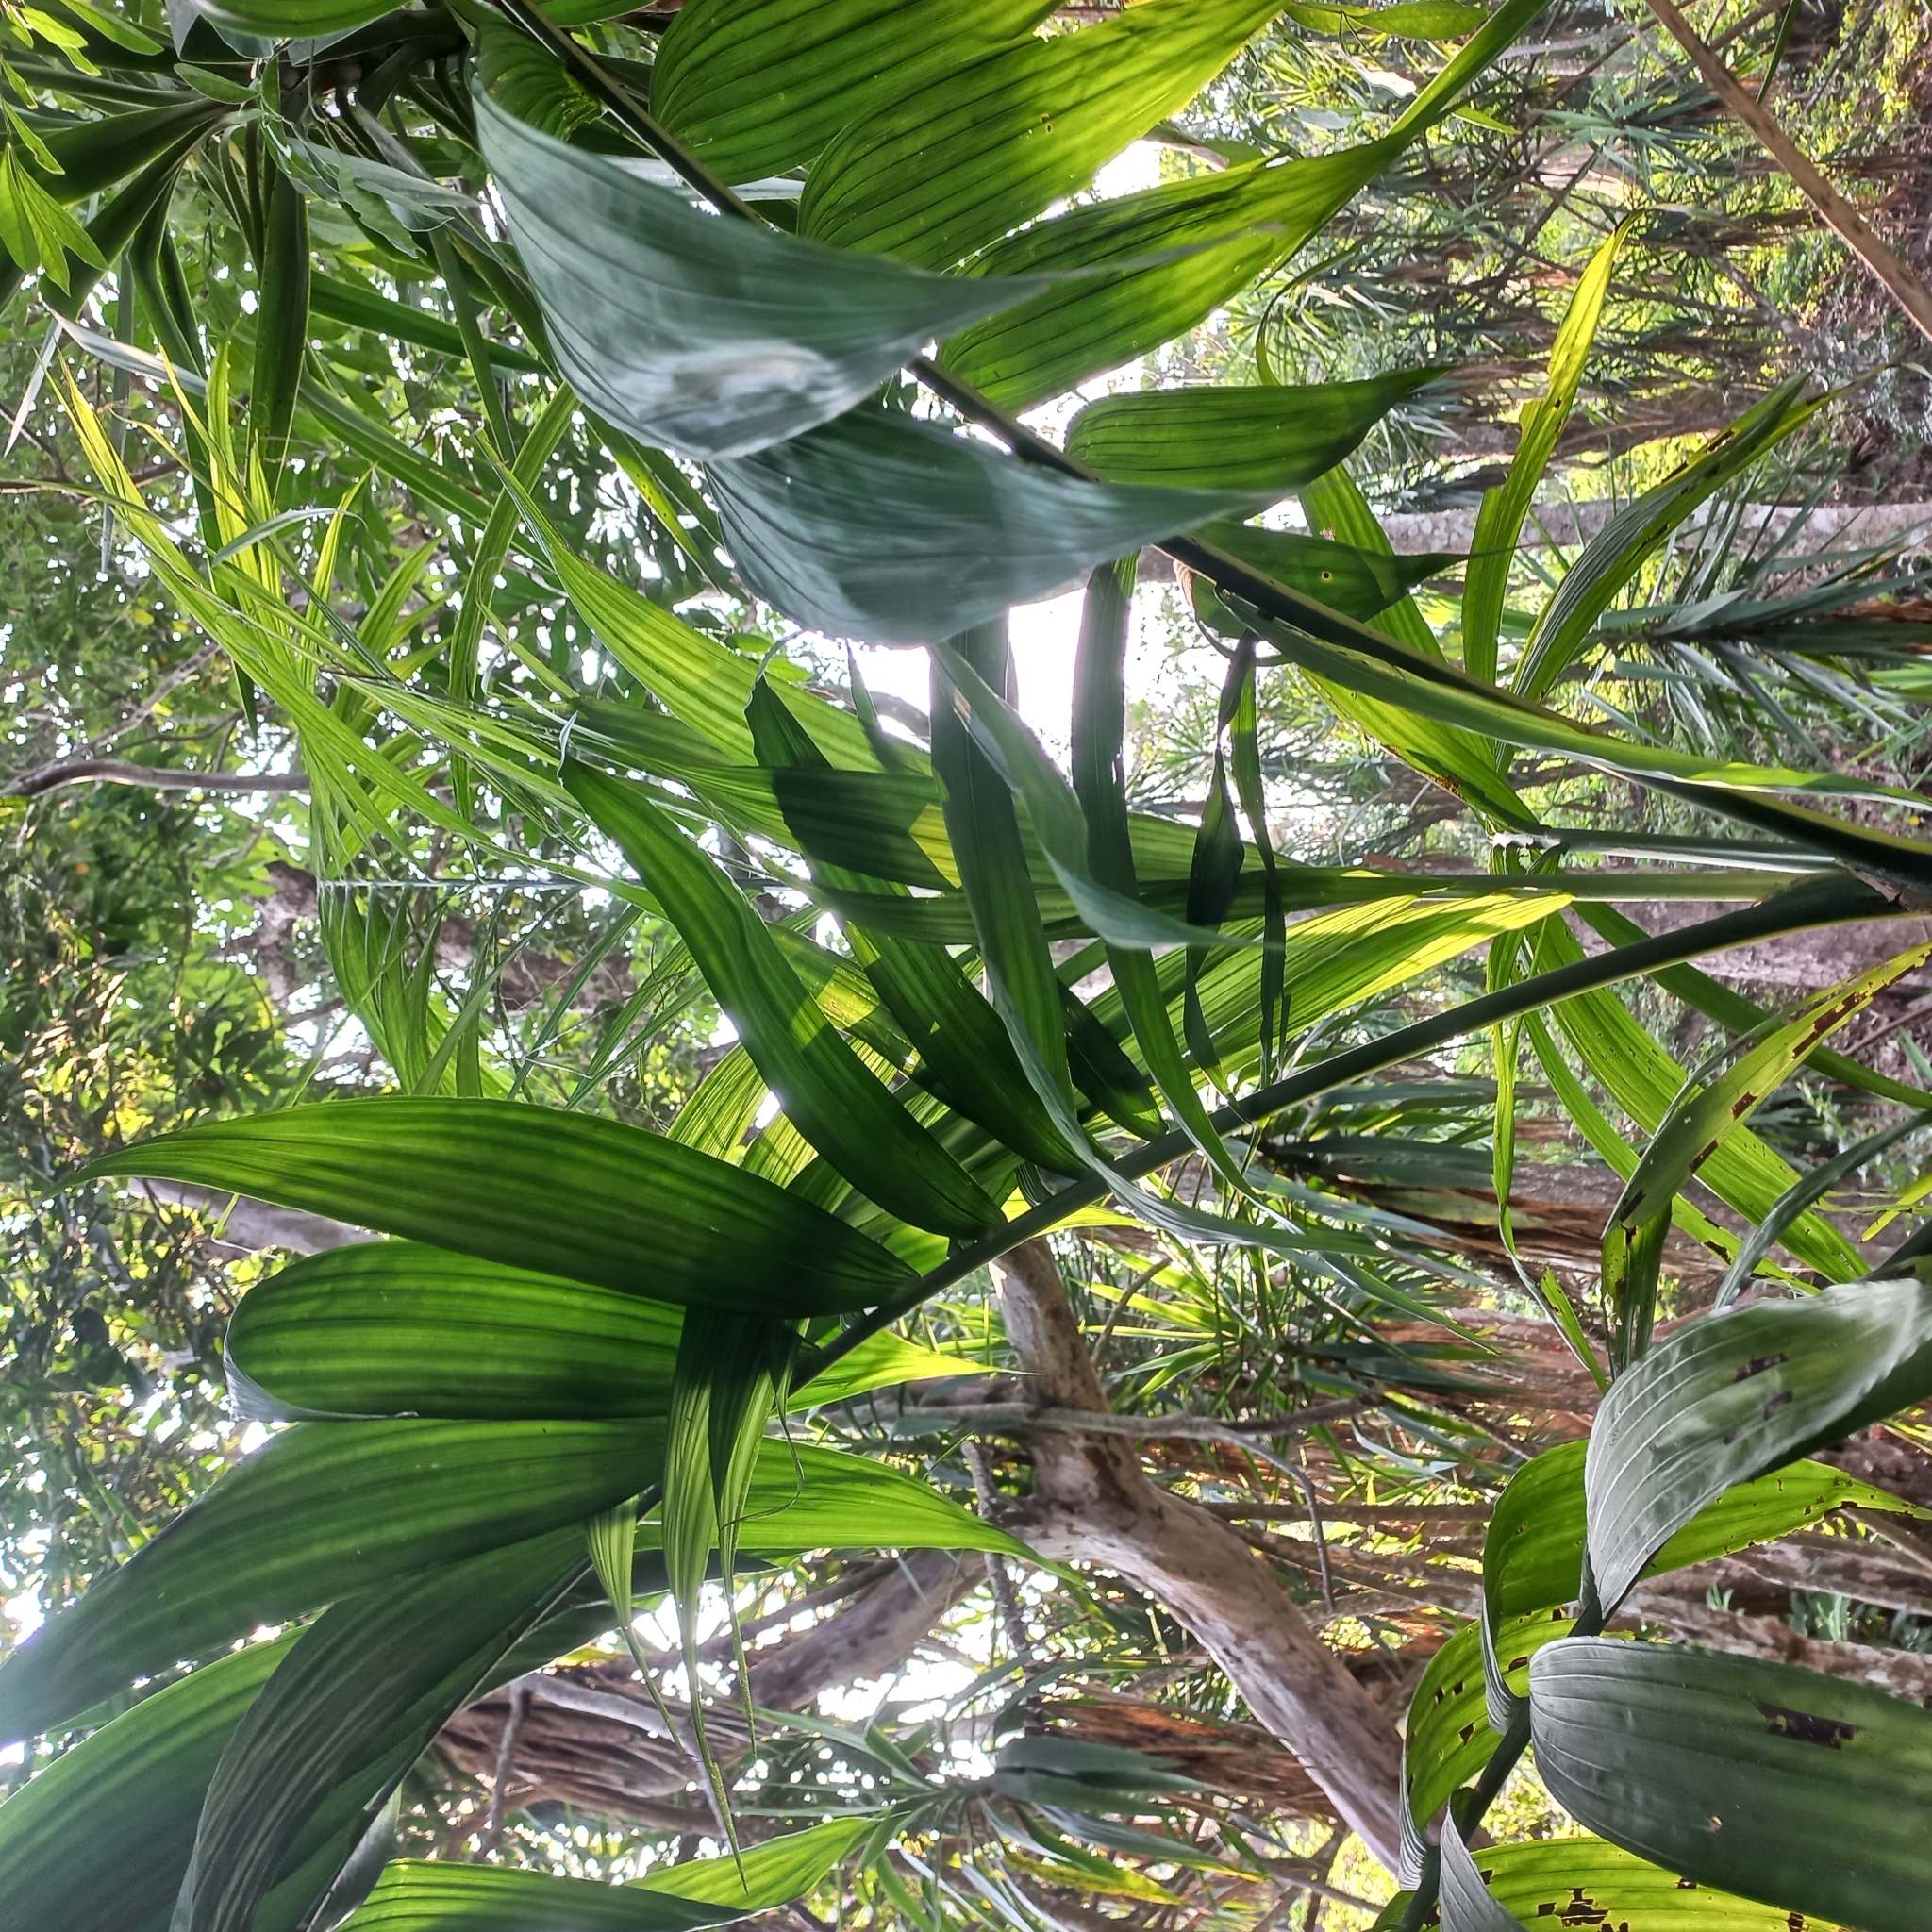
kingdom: Plantae
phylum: Tracheophyta
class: Liliopsida
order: Arecales
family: Arecaceae
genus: Chamaedorea
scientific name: Chamaedorea tepejilote
